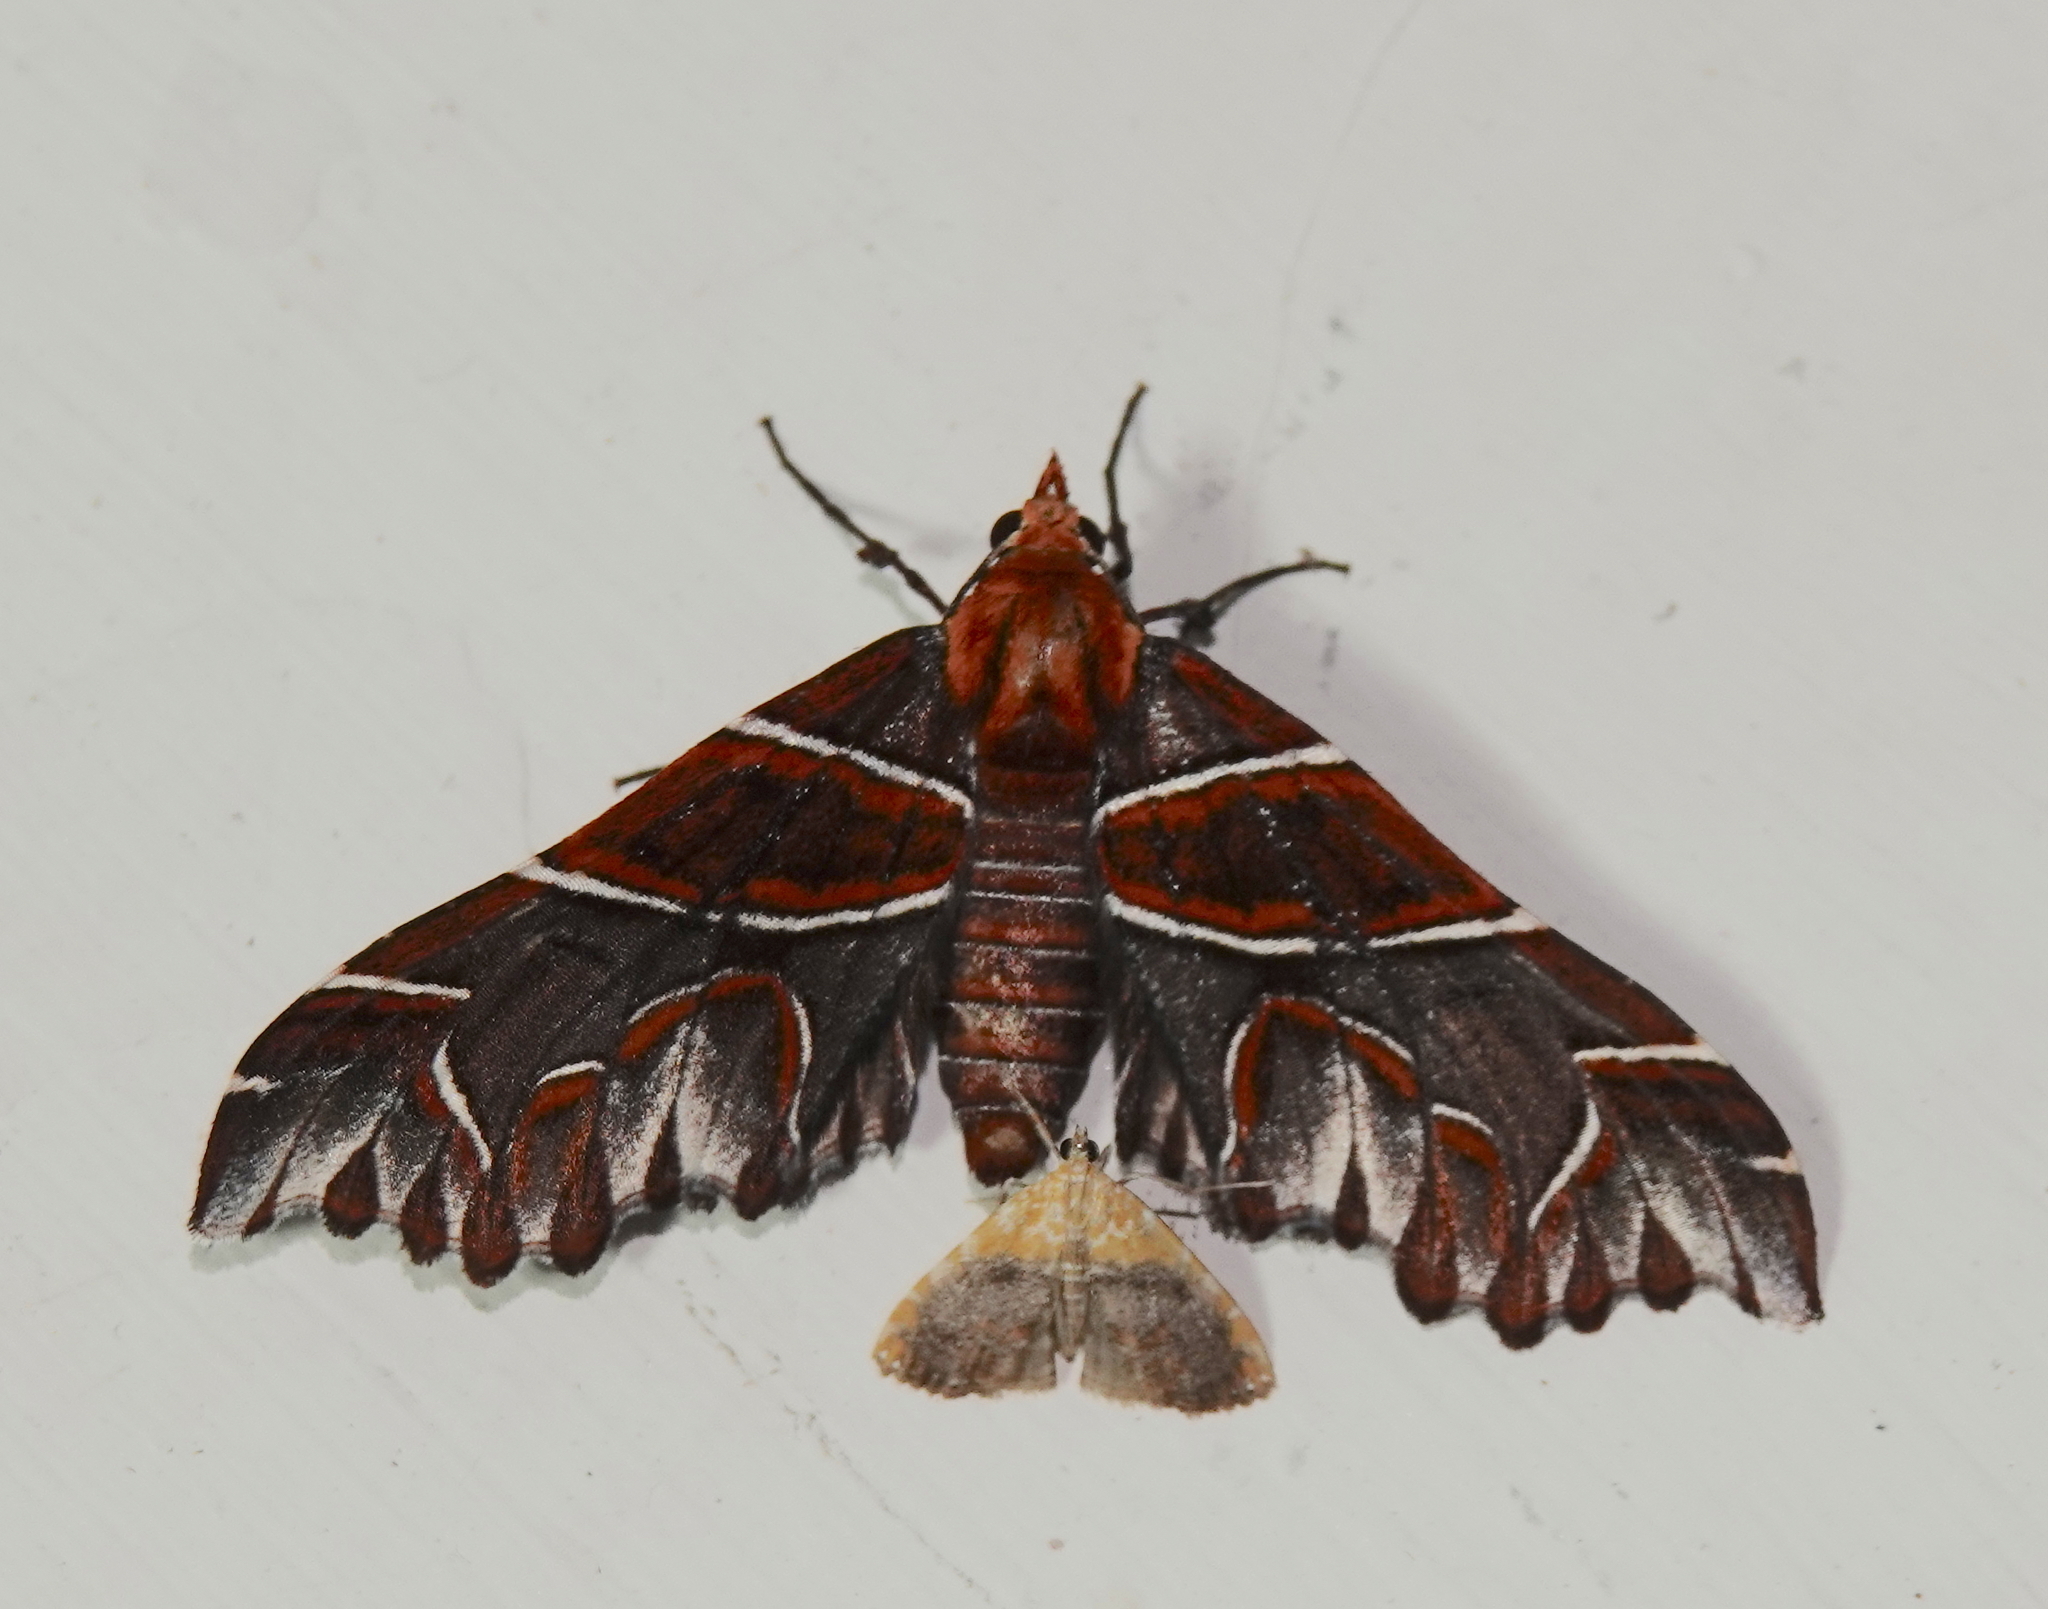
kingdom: Animalia
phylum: Arthropoda
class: Insecta
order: Lepidoptera
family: Geometridae
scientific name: Geometridae
